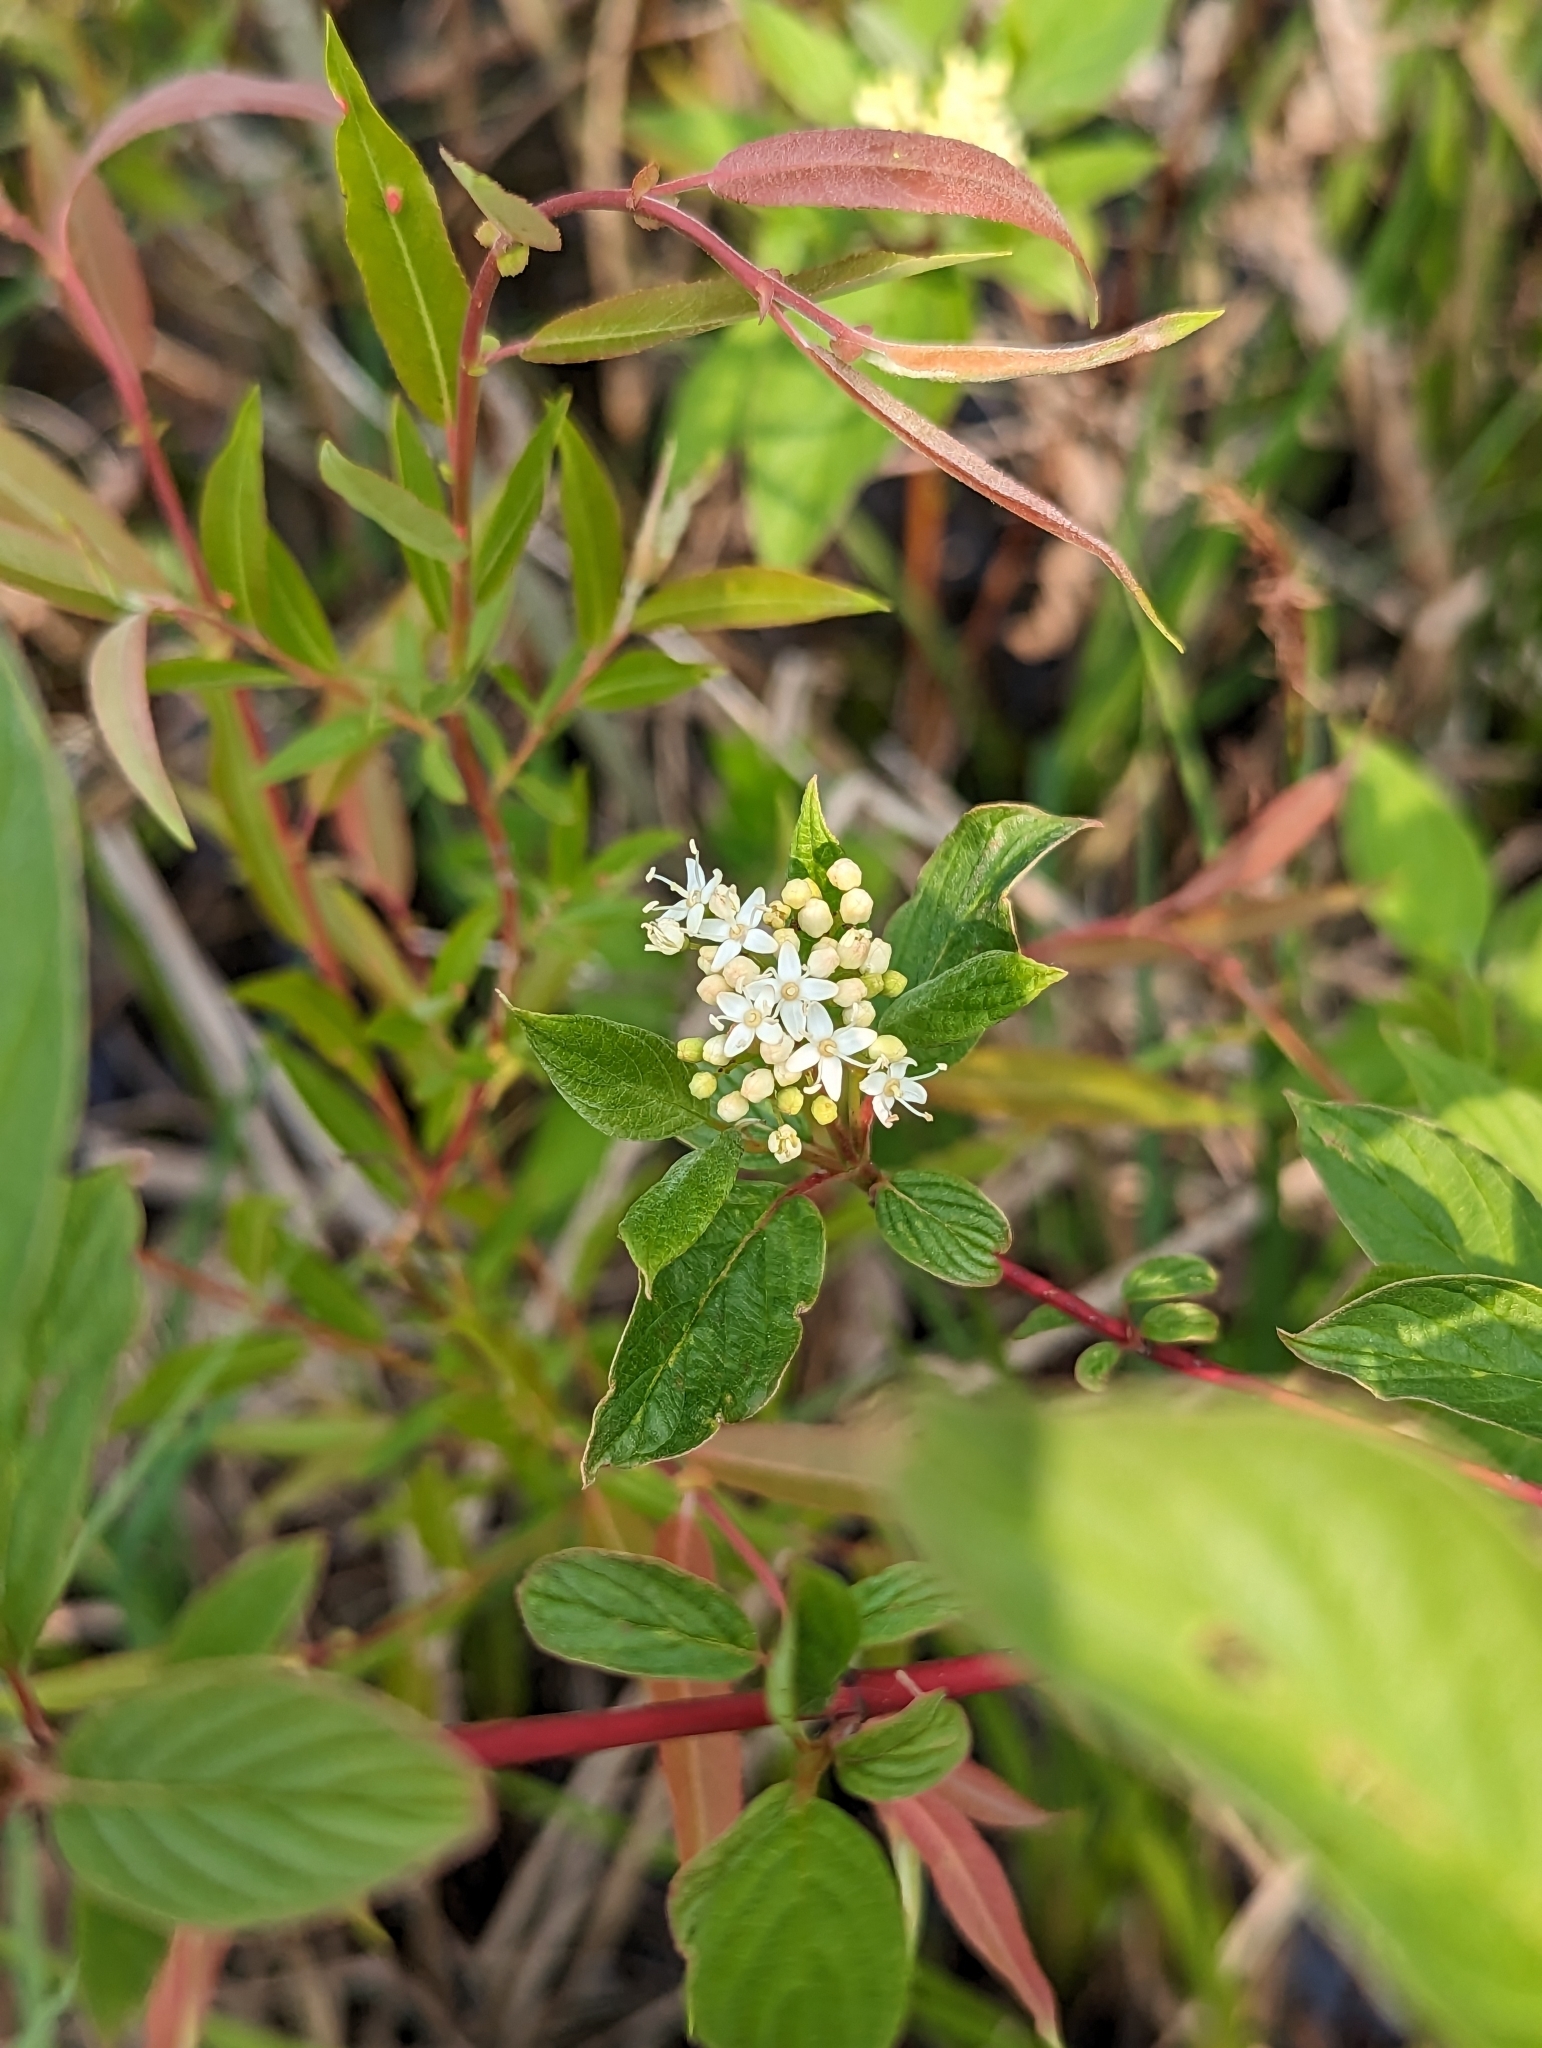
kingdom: Plantae
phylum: Tracheophyta
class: Magnoliopsida
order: Cornales
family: Cornaceae
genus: Cornus
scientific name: Cornus sericea
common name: Red-osier dogwood
